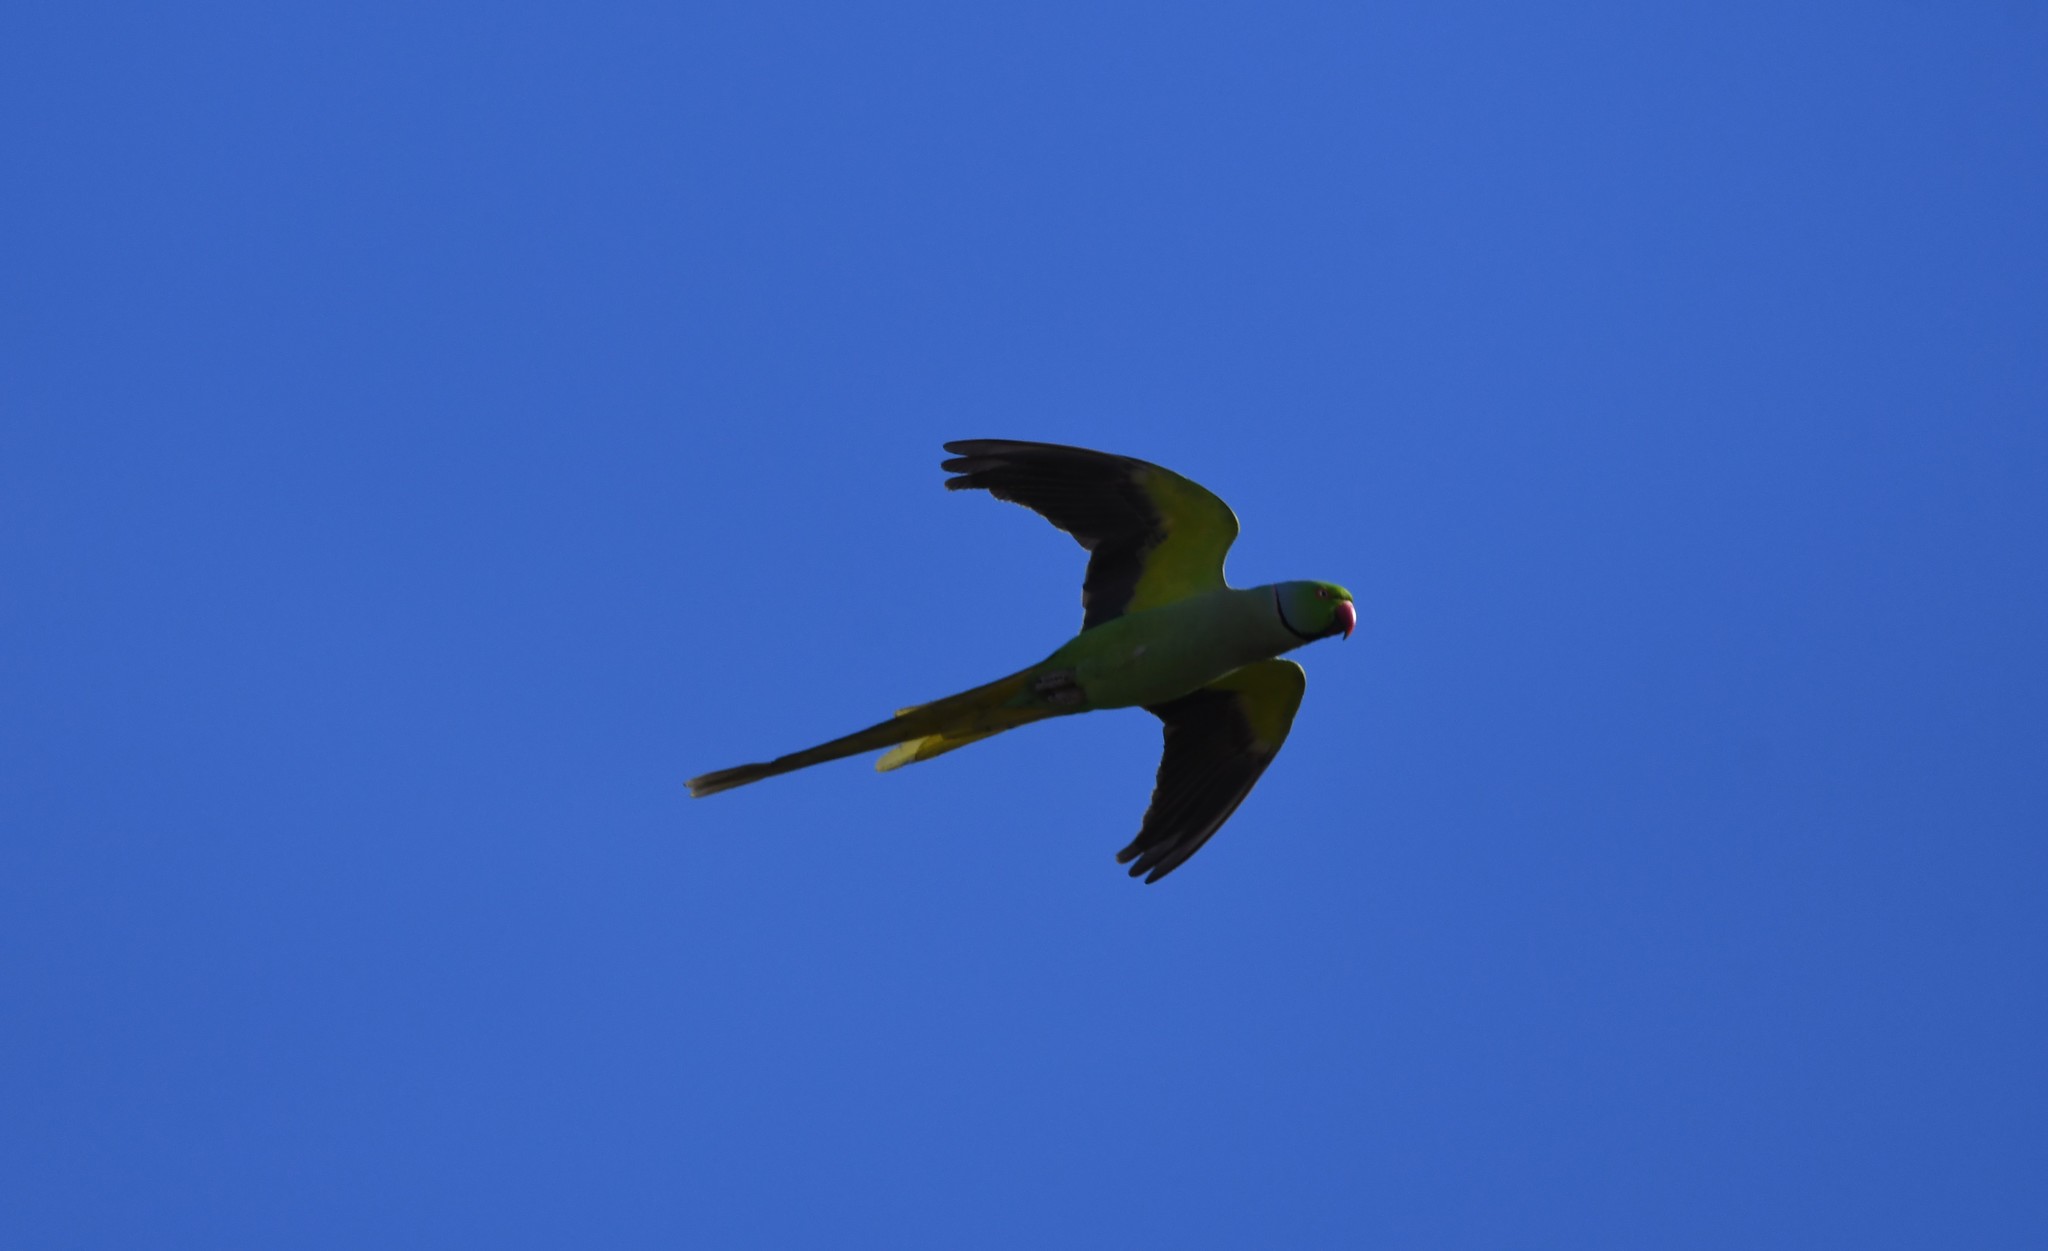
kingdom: Animalia
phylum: Chordata
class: Aves
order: Psittaciformes
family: Psittacidae
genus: Psittacula
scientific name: Psittacula krameri
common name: Rose-ringed parakeet
